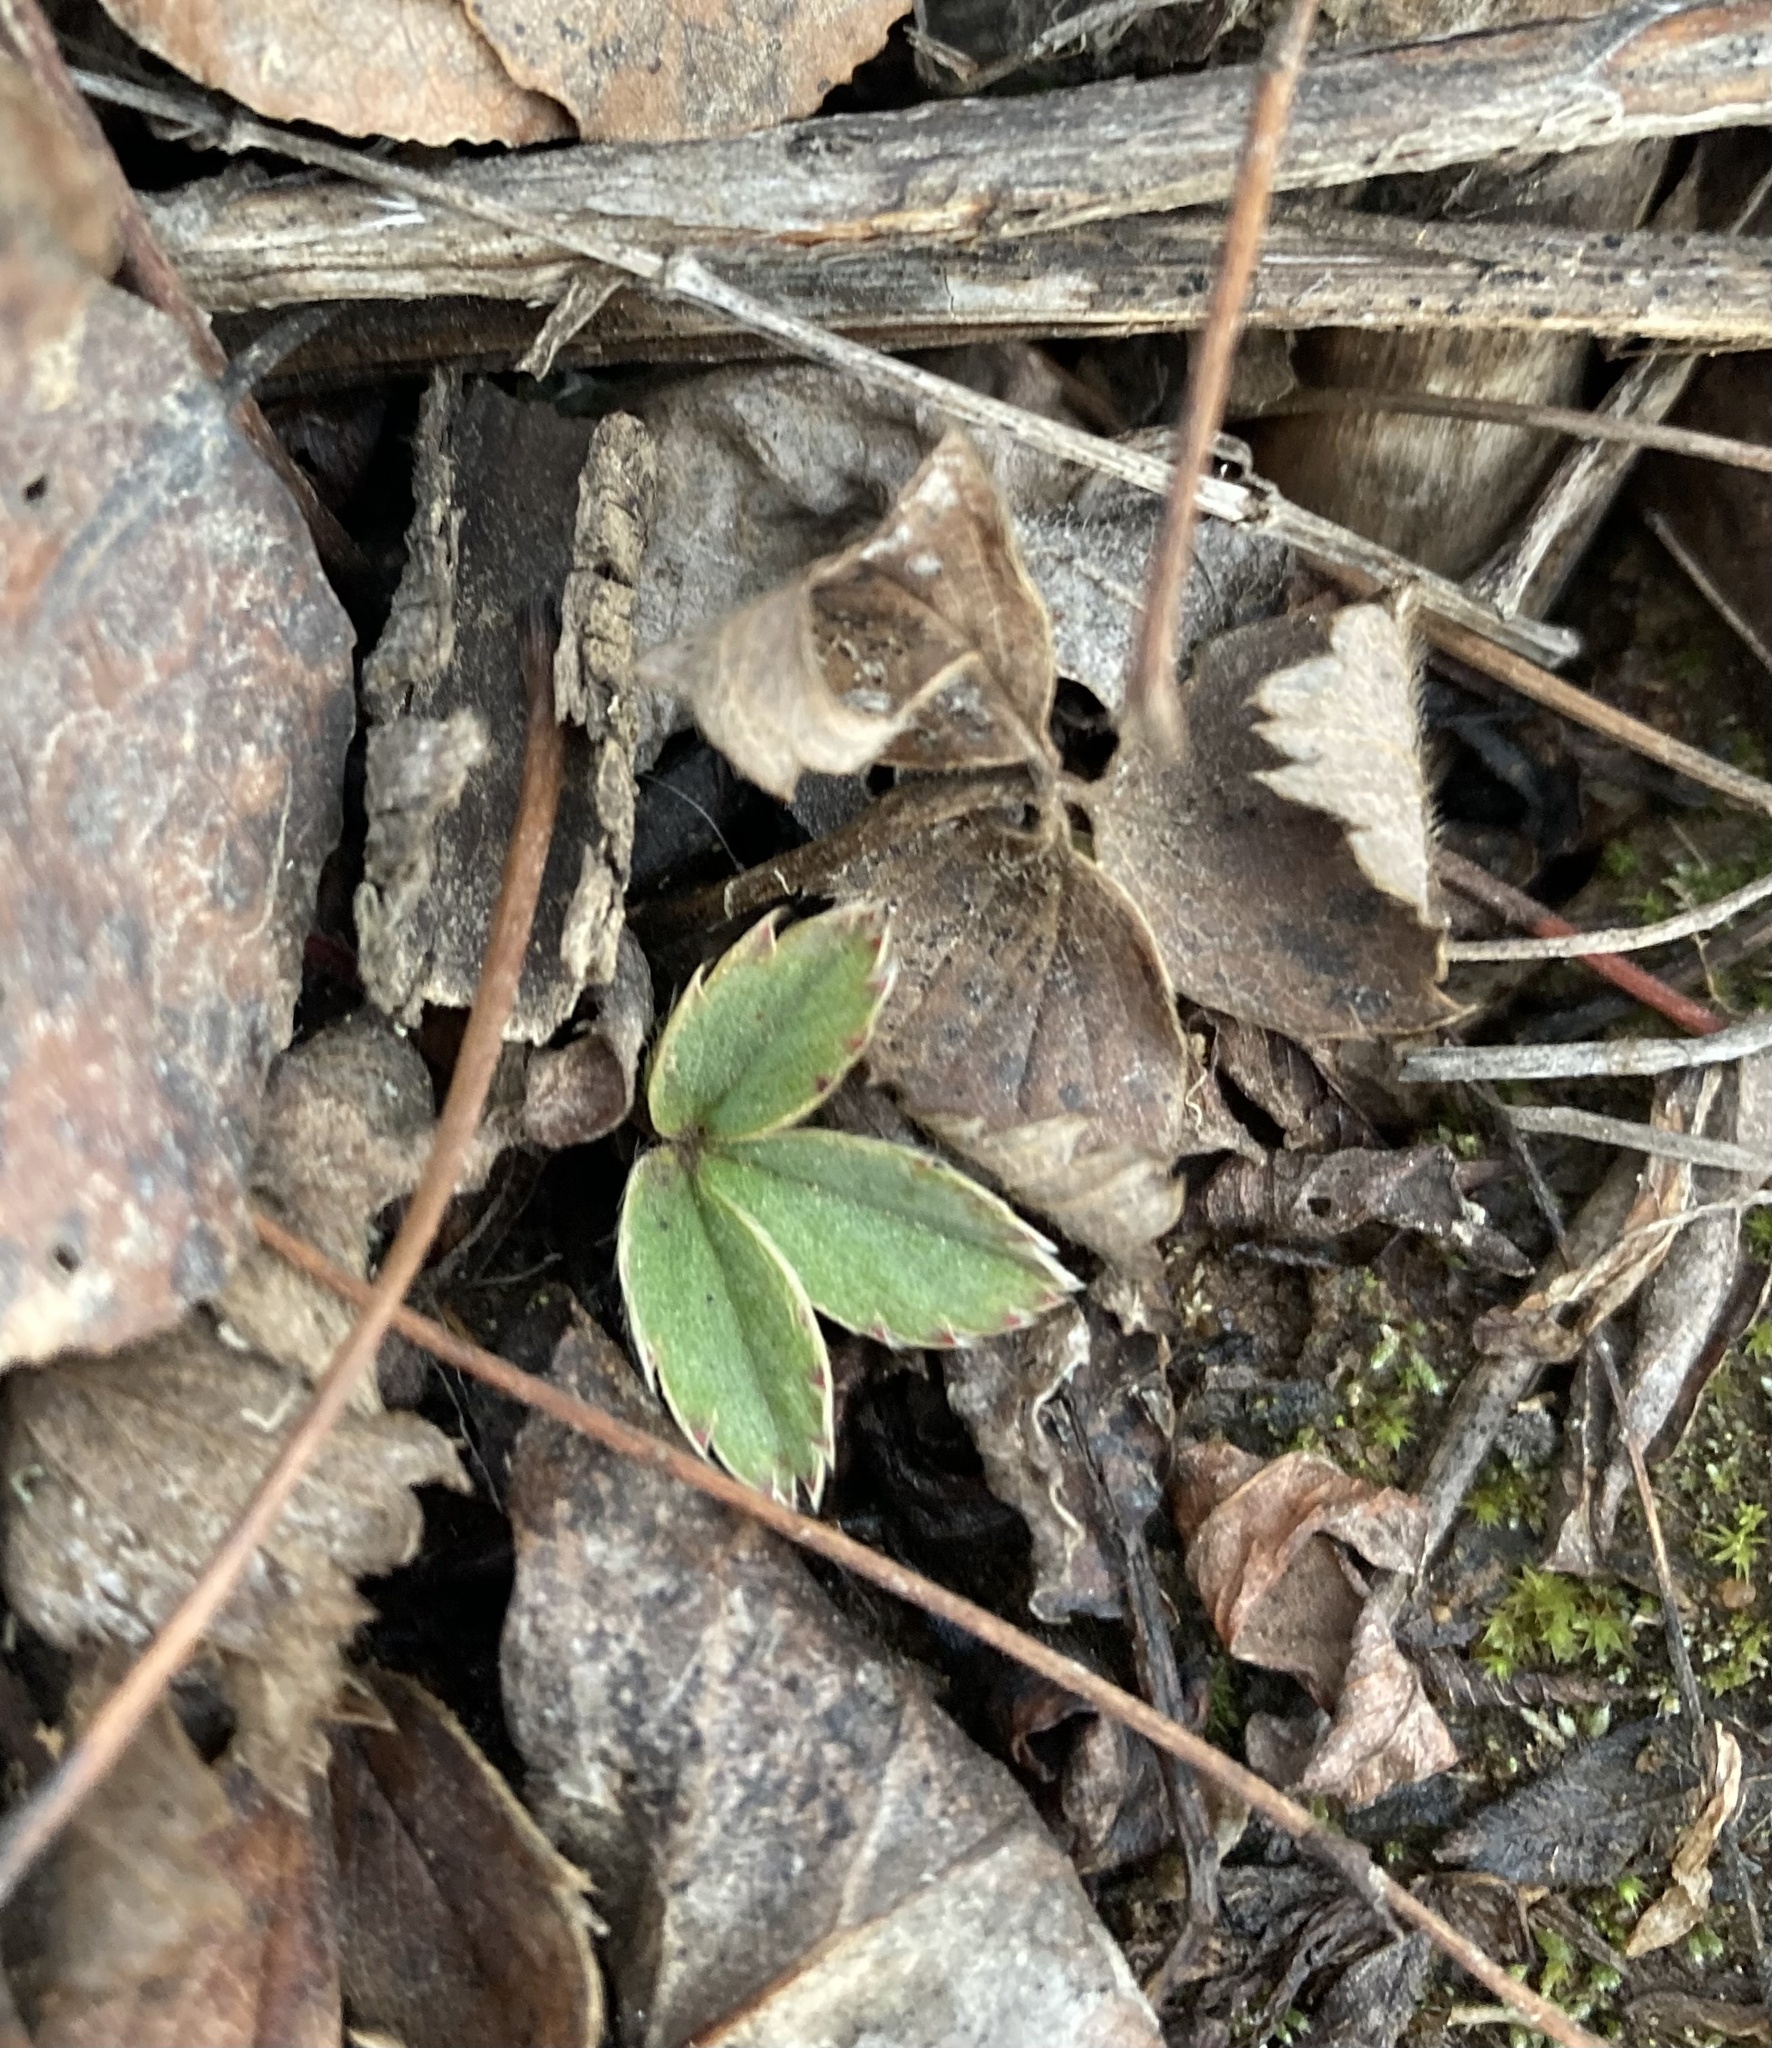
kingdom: Plantae
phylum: Tracheophyta
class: Magnoliopsida
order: Rosales
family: Rosaceae
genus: Fragaria
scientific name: Fragaria virginiana
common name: Thickleaved wild strawberry
